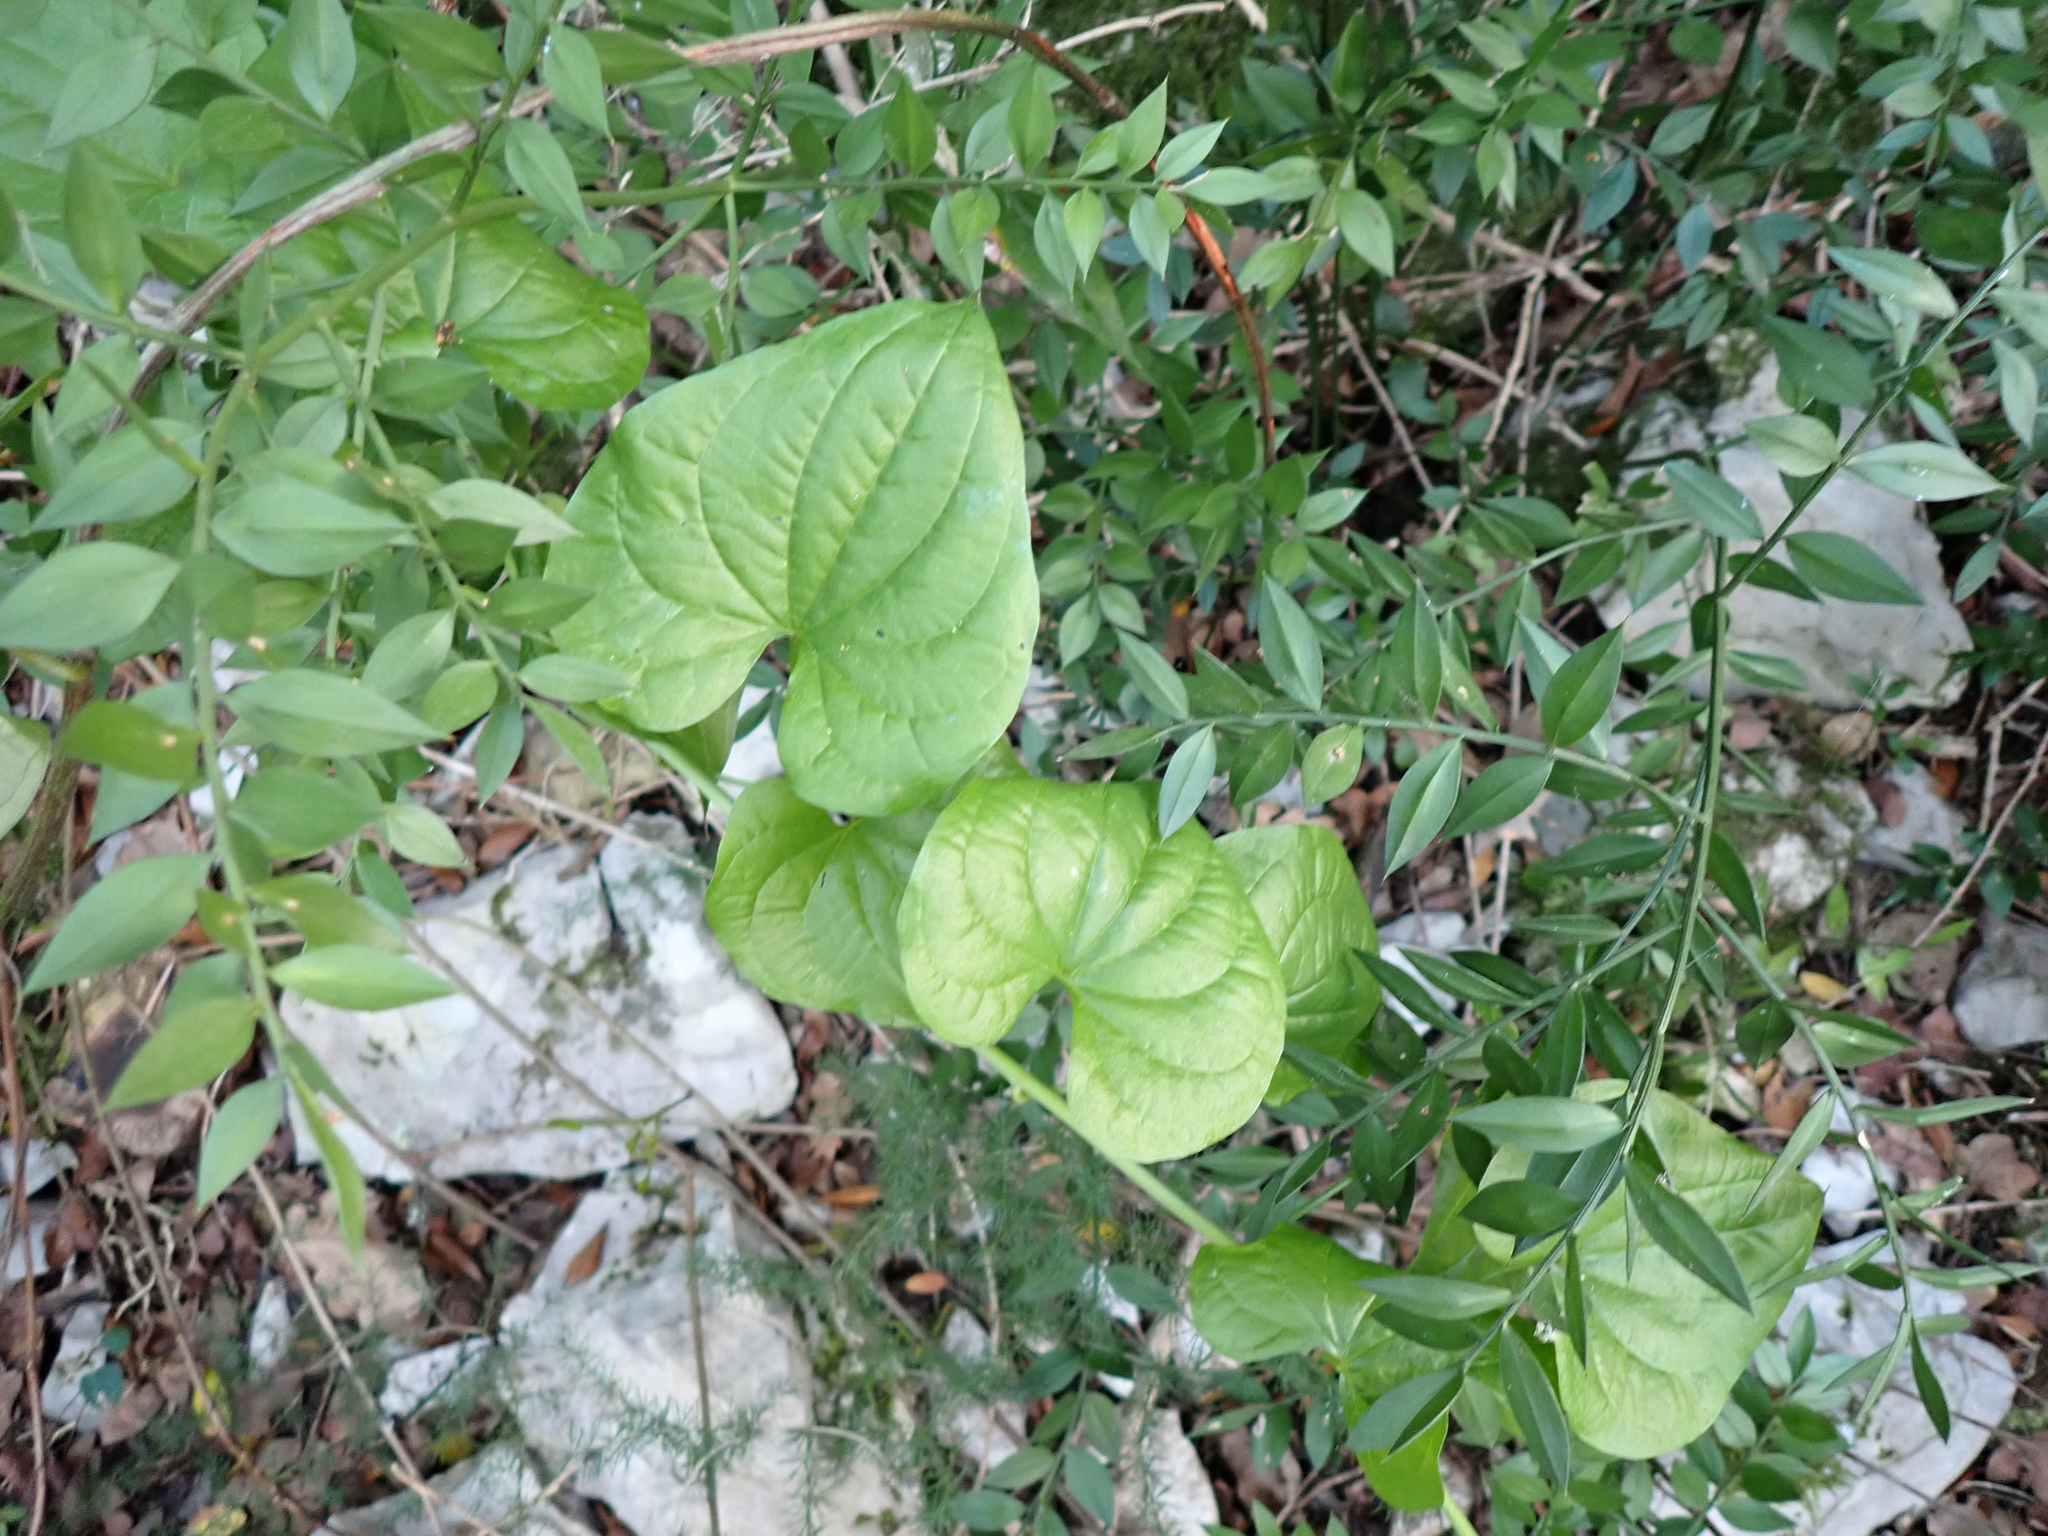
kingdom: Plantae
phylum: Tracheophyta
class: Liliopsida
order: Dioscoreales
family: Dioscoreaceae
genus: Dioscorea
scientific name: Dioscorea communis
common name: Black-bindweed
